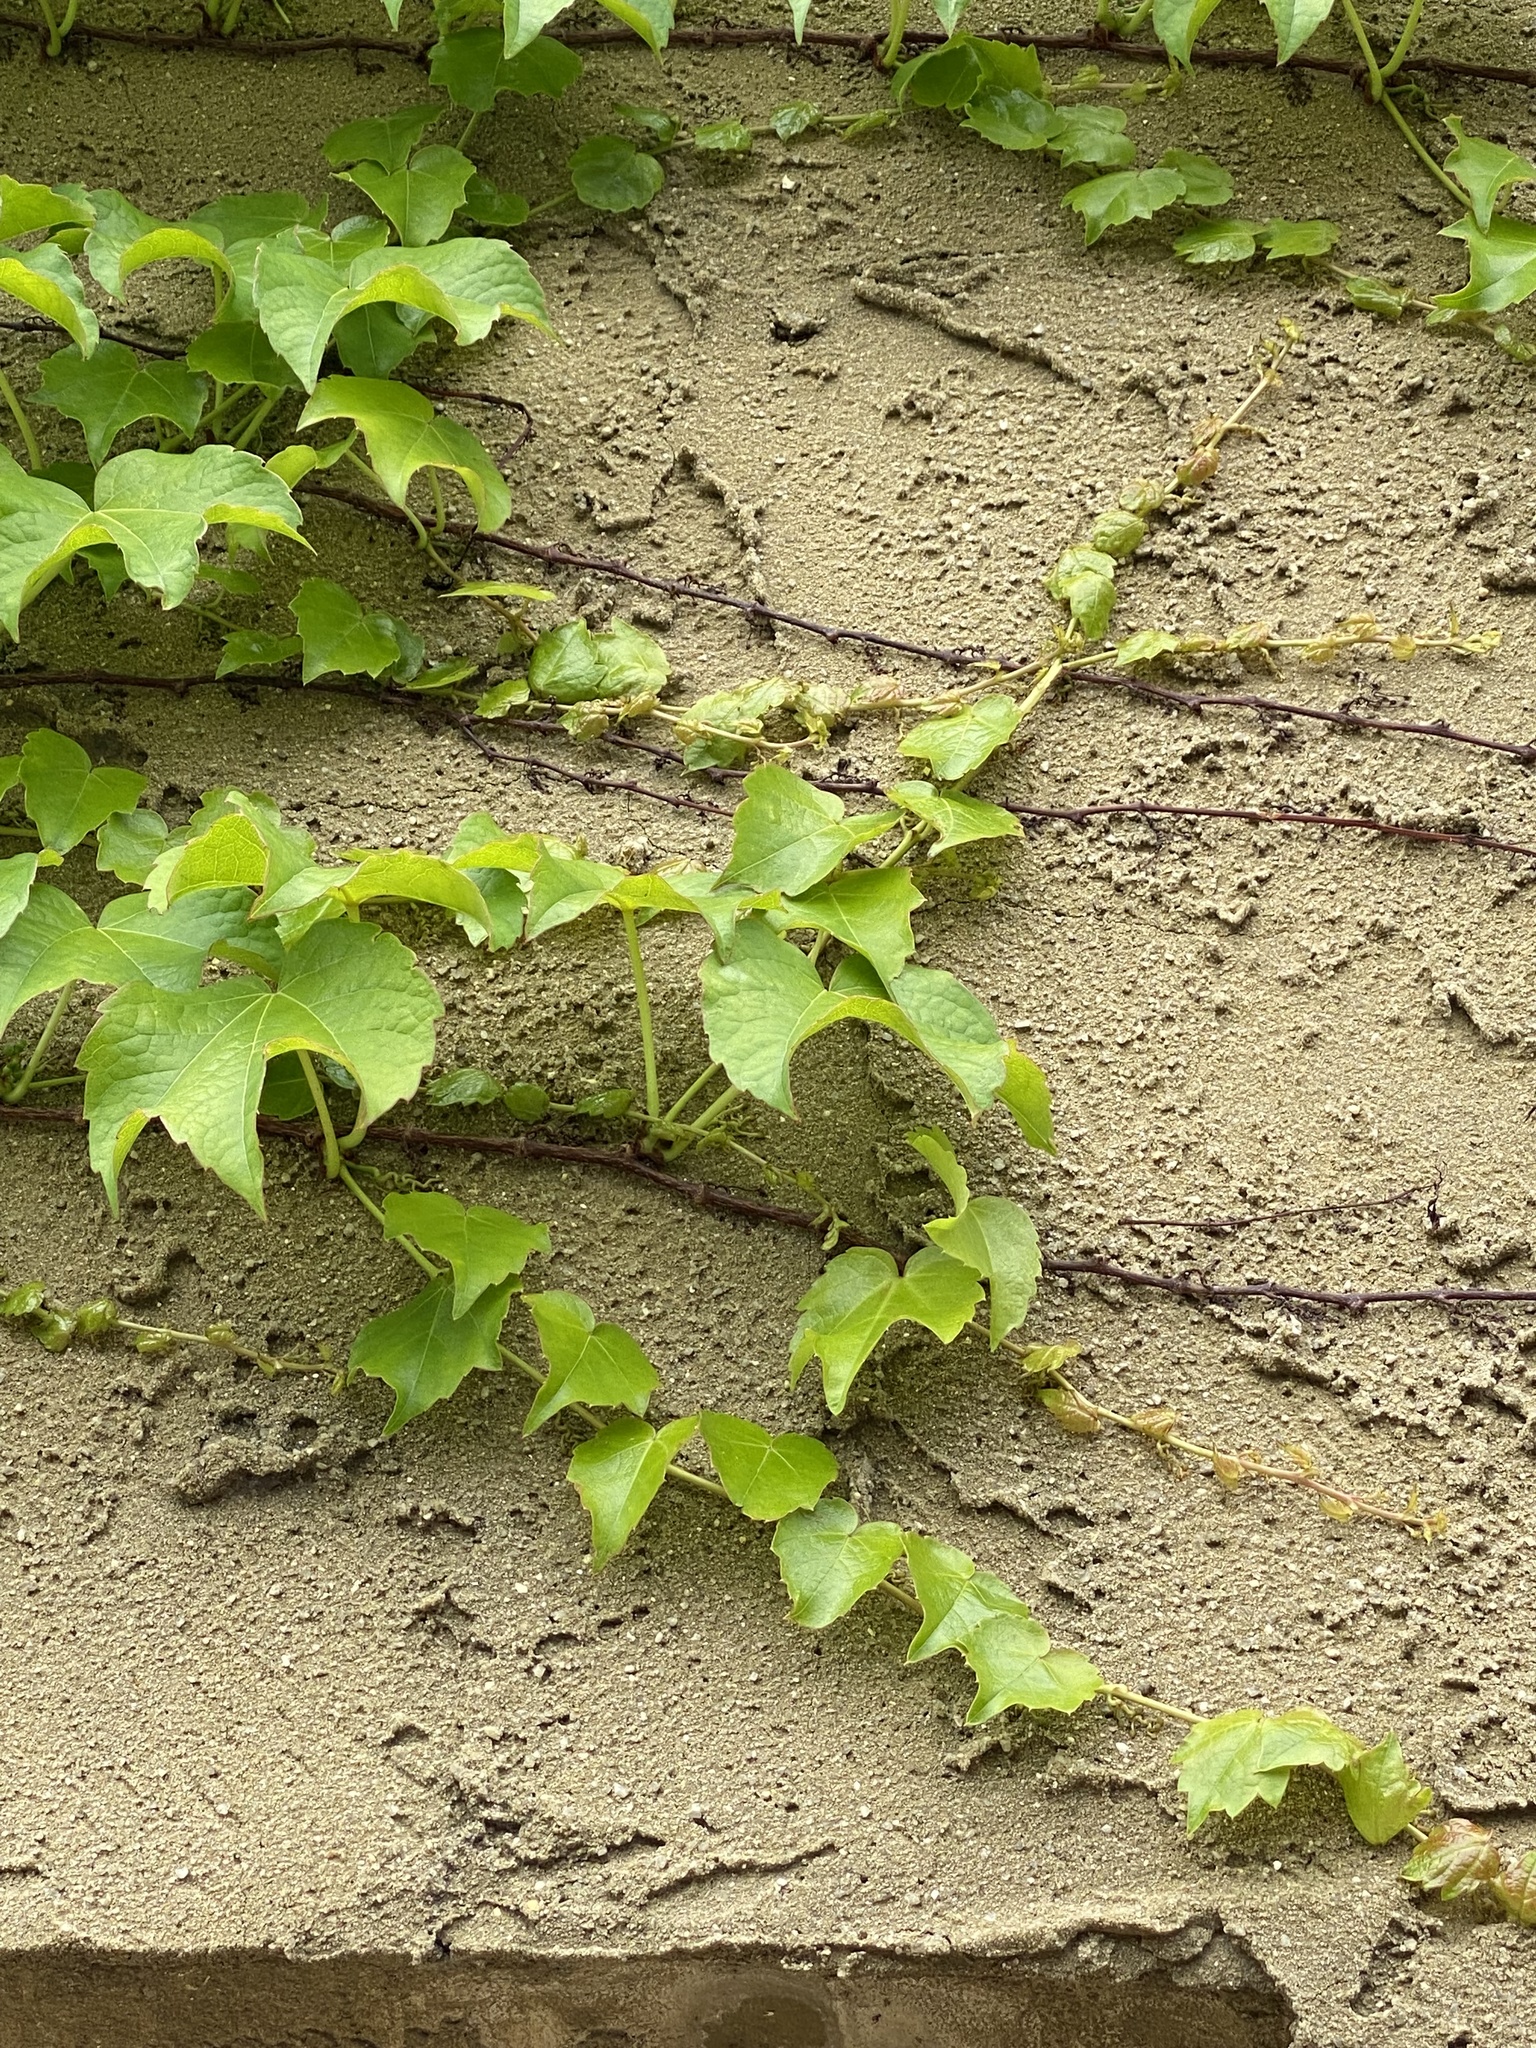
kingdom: Plantae
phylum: Tracheophyta
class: Magnoliopsida
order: Vitales
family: Vitaceae
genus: Parthenocissus
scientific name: Parthenocissus tricuspidata
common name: Boston ivy
